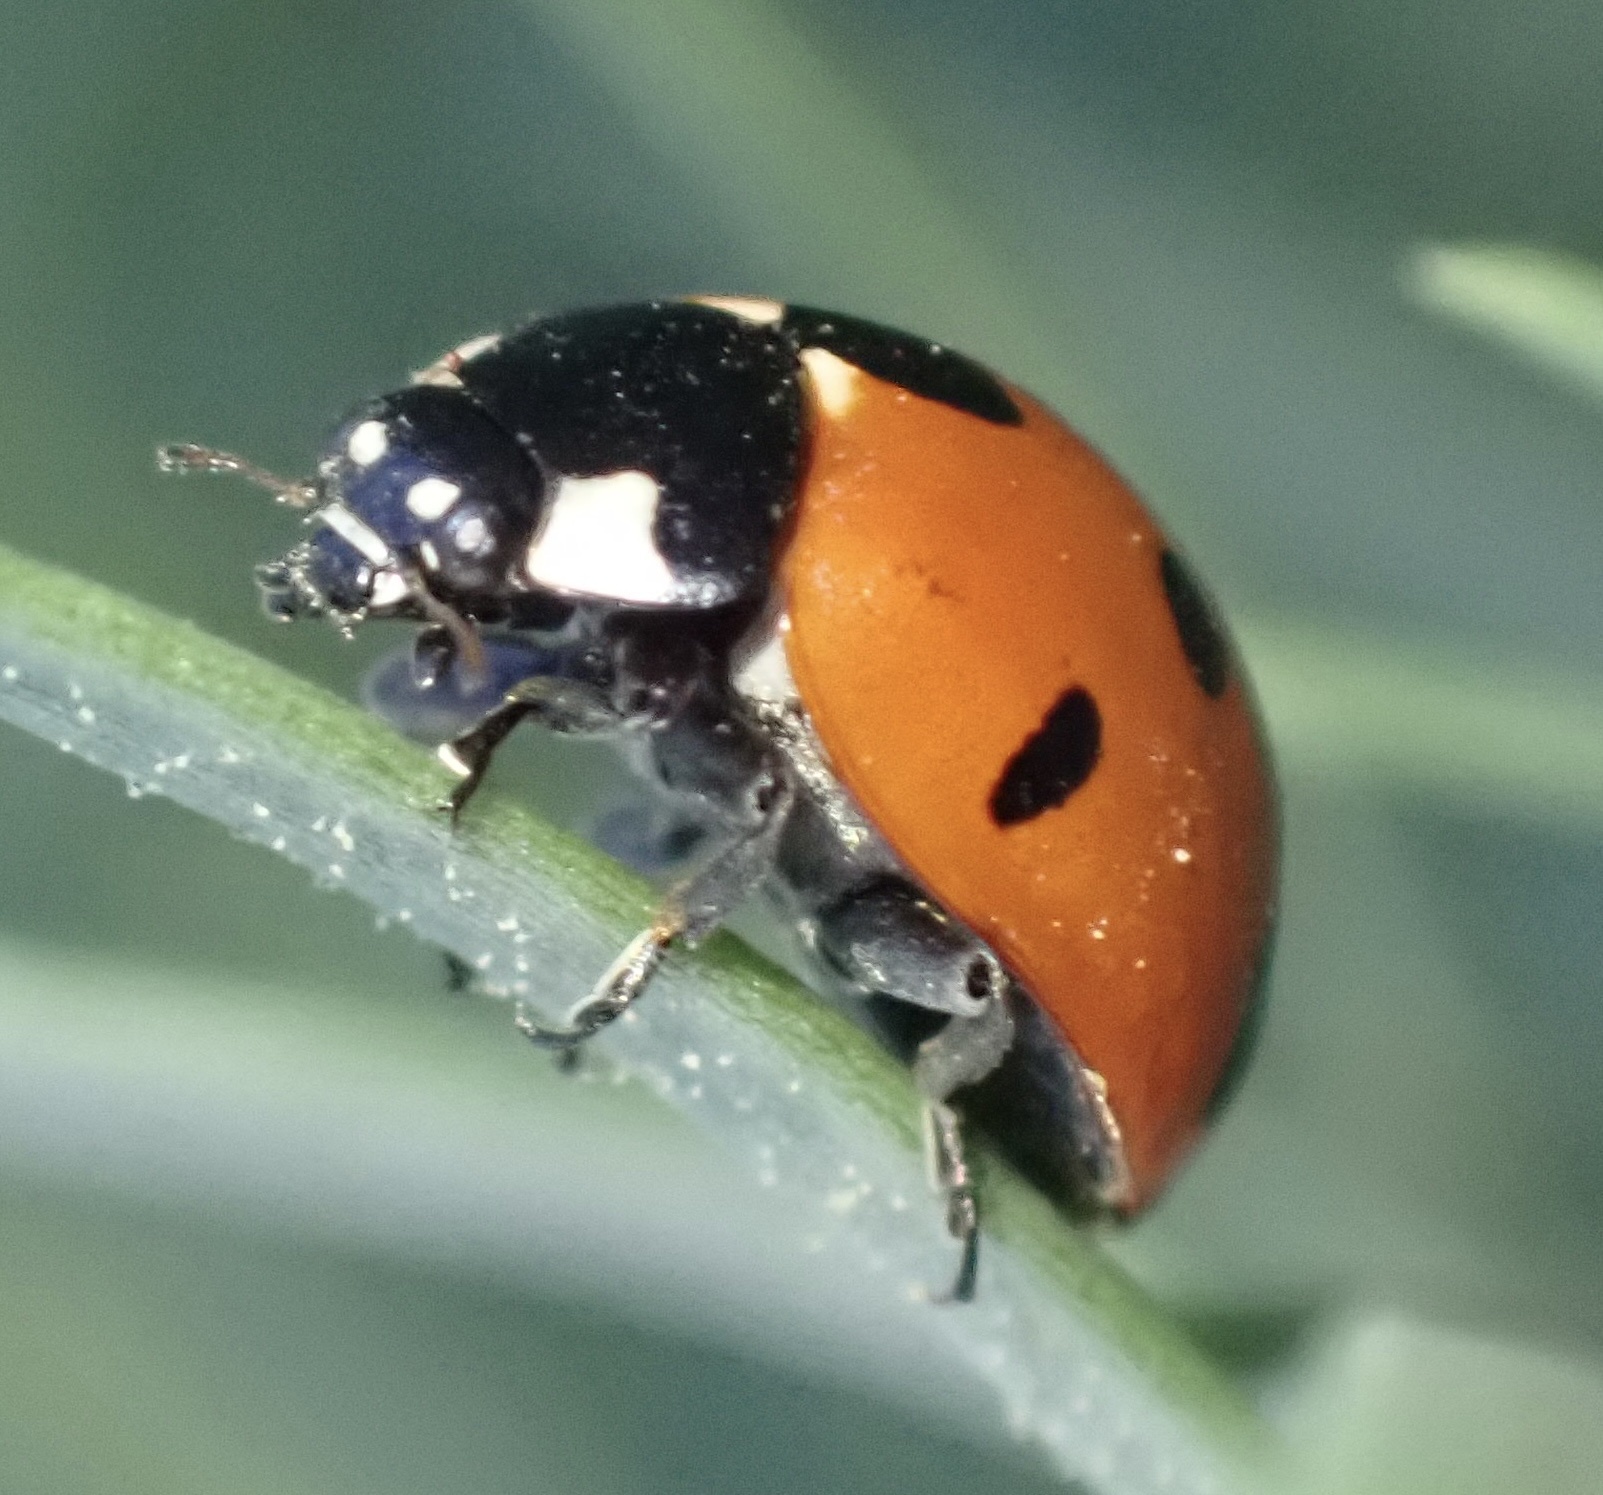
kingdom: Animalia
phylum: Arthropoda
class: Insecta
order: Coleoptera
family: Coccinellidae
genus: Coccinella
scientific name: Coccinella algerica
